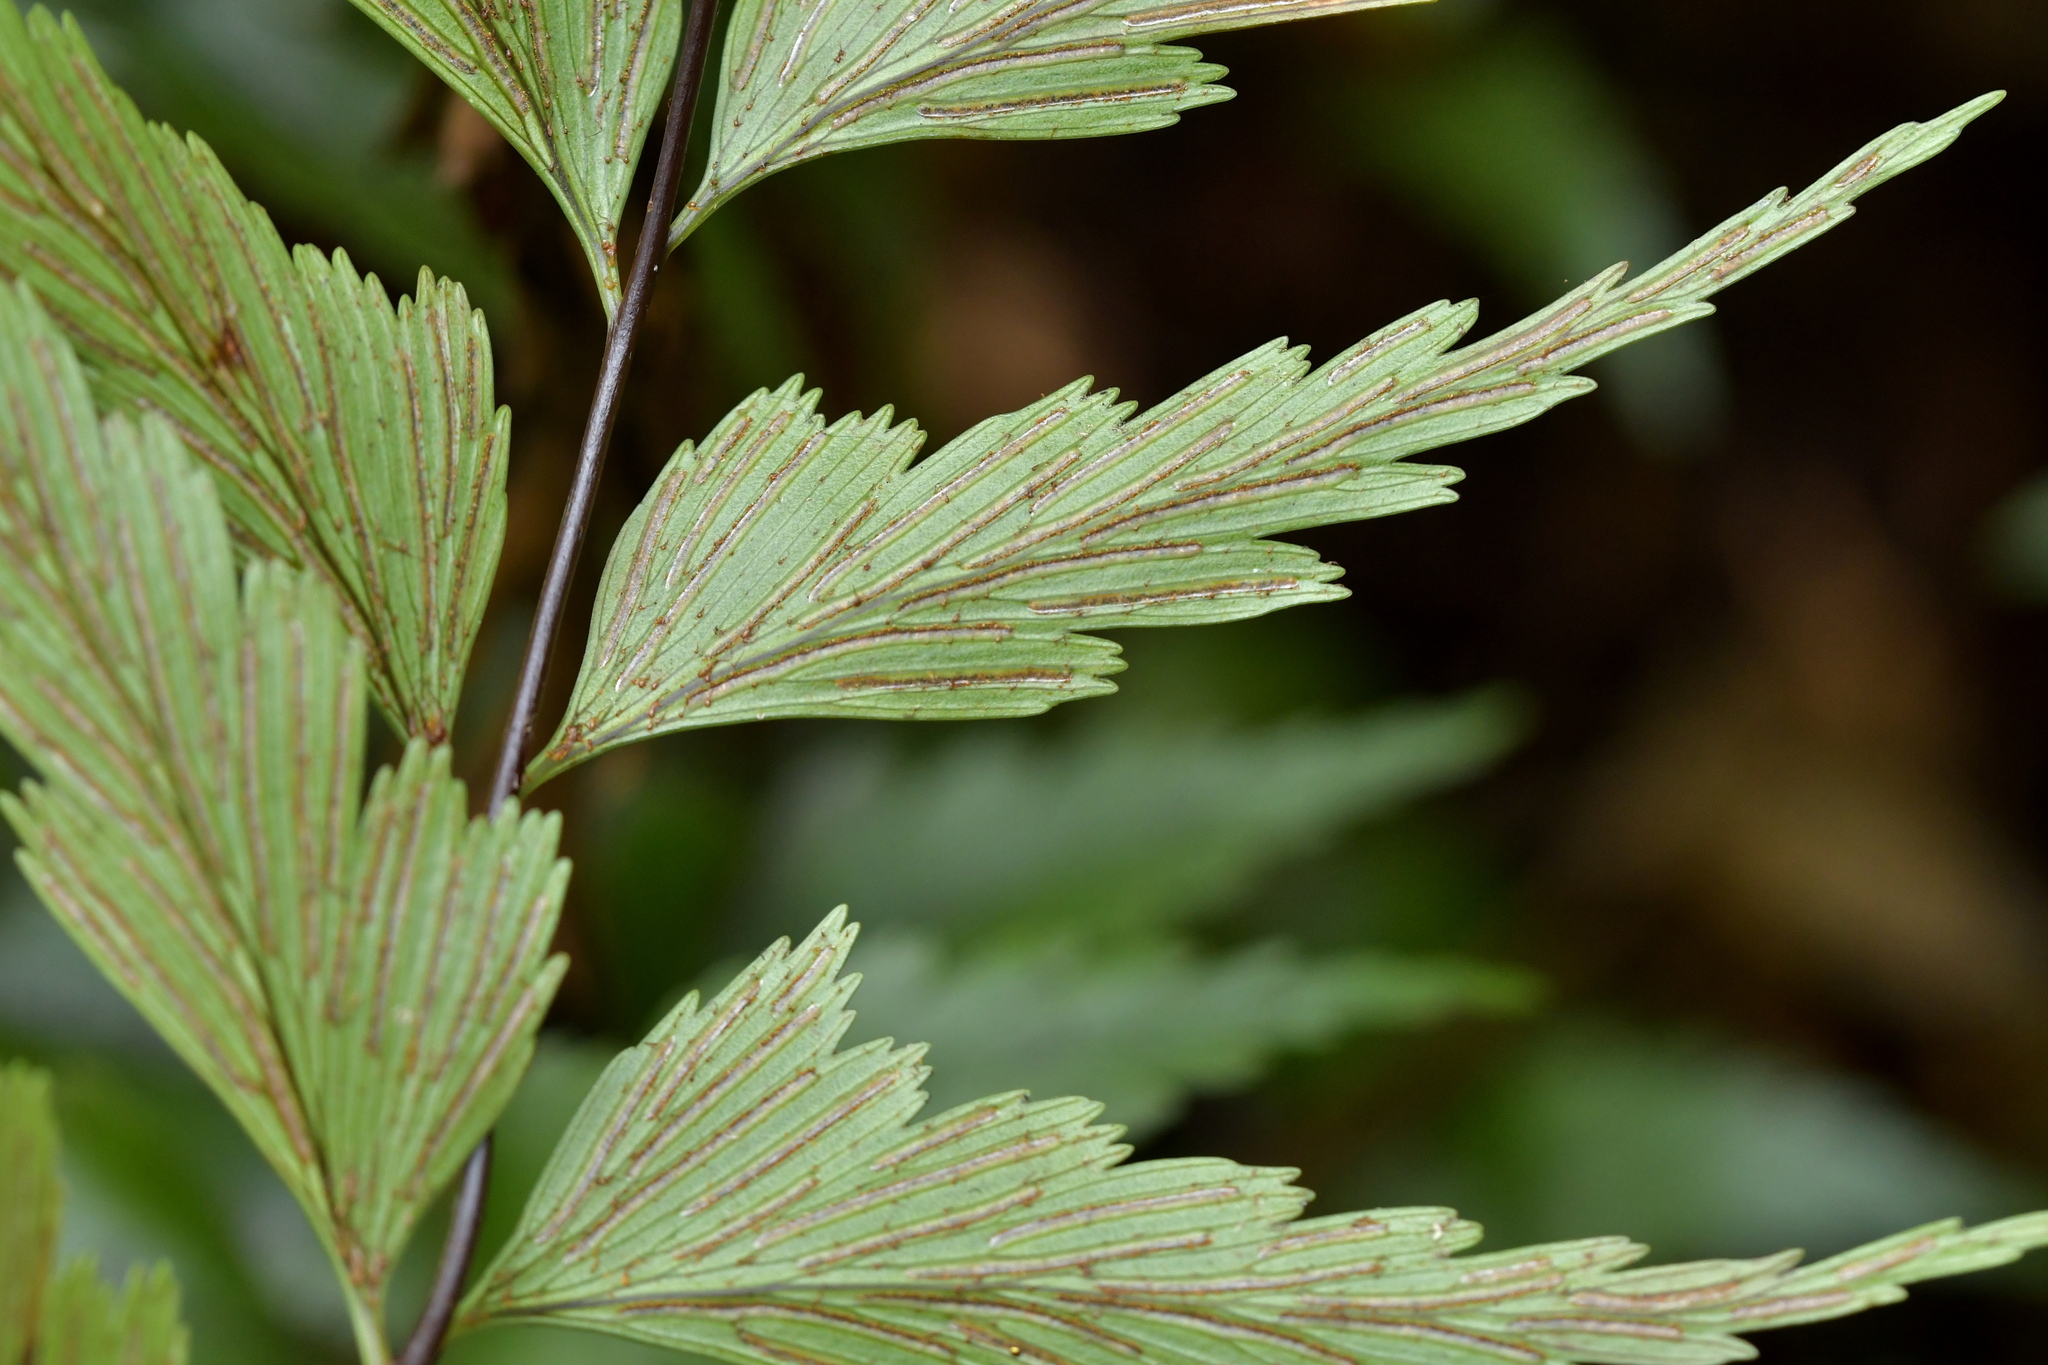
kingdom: Plantae
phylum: Tracheophyta
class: Polypodiopsida
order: Polypodiales
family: Aspleniaceae
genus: Asplenium
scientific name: Asplenium polyodon
